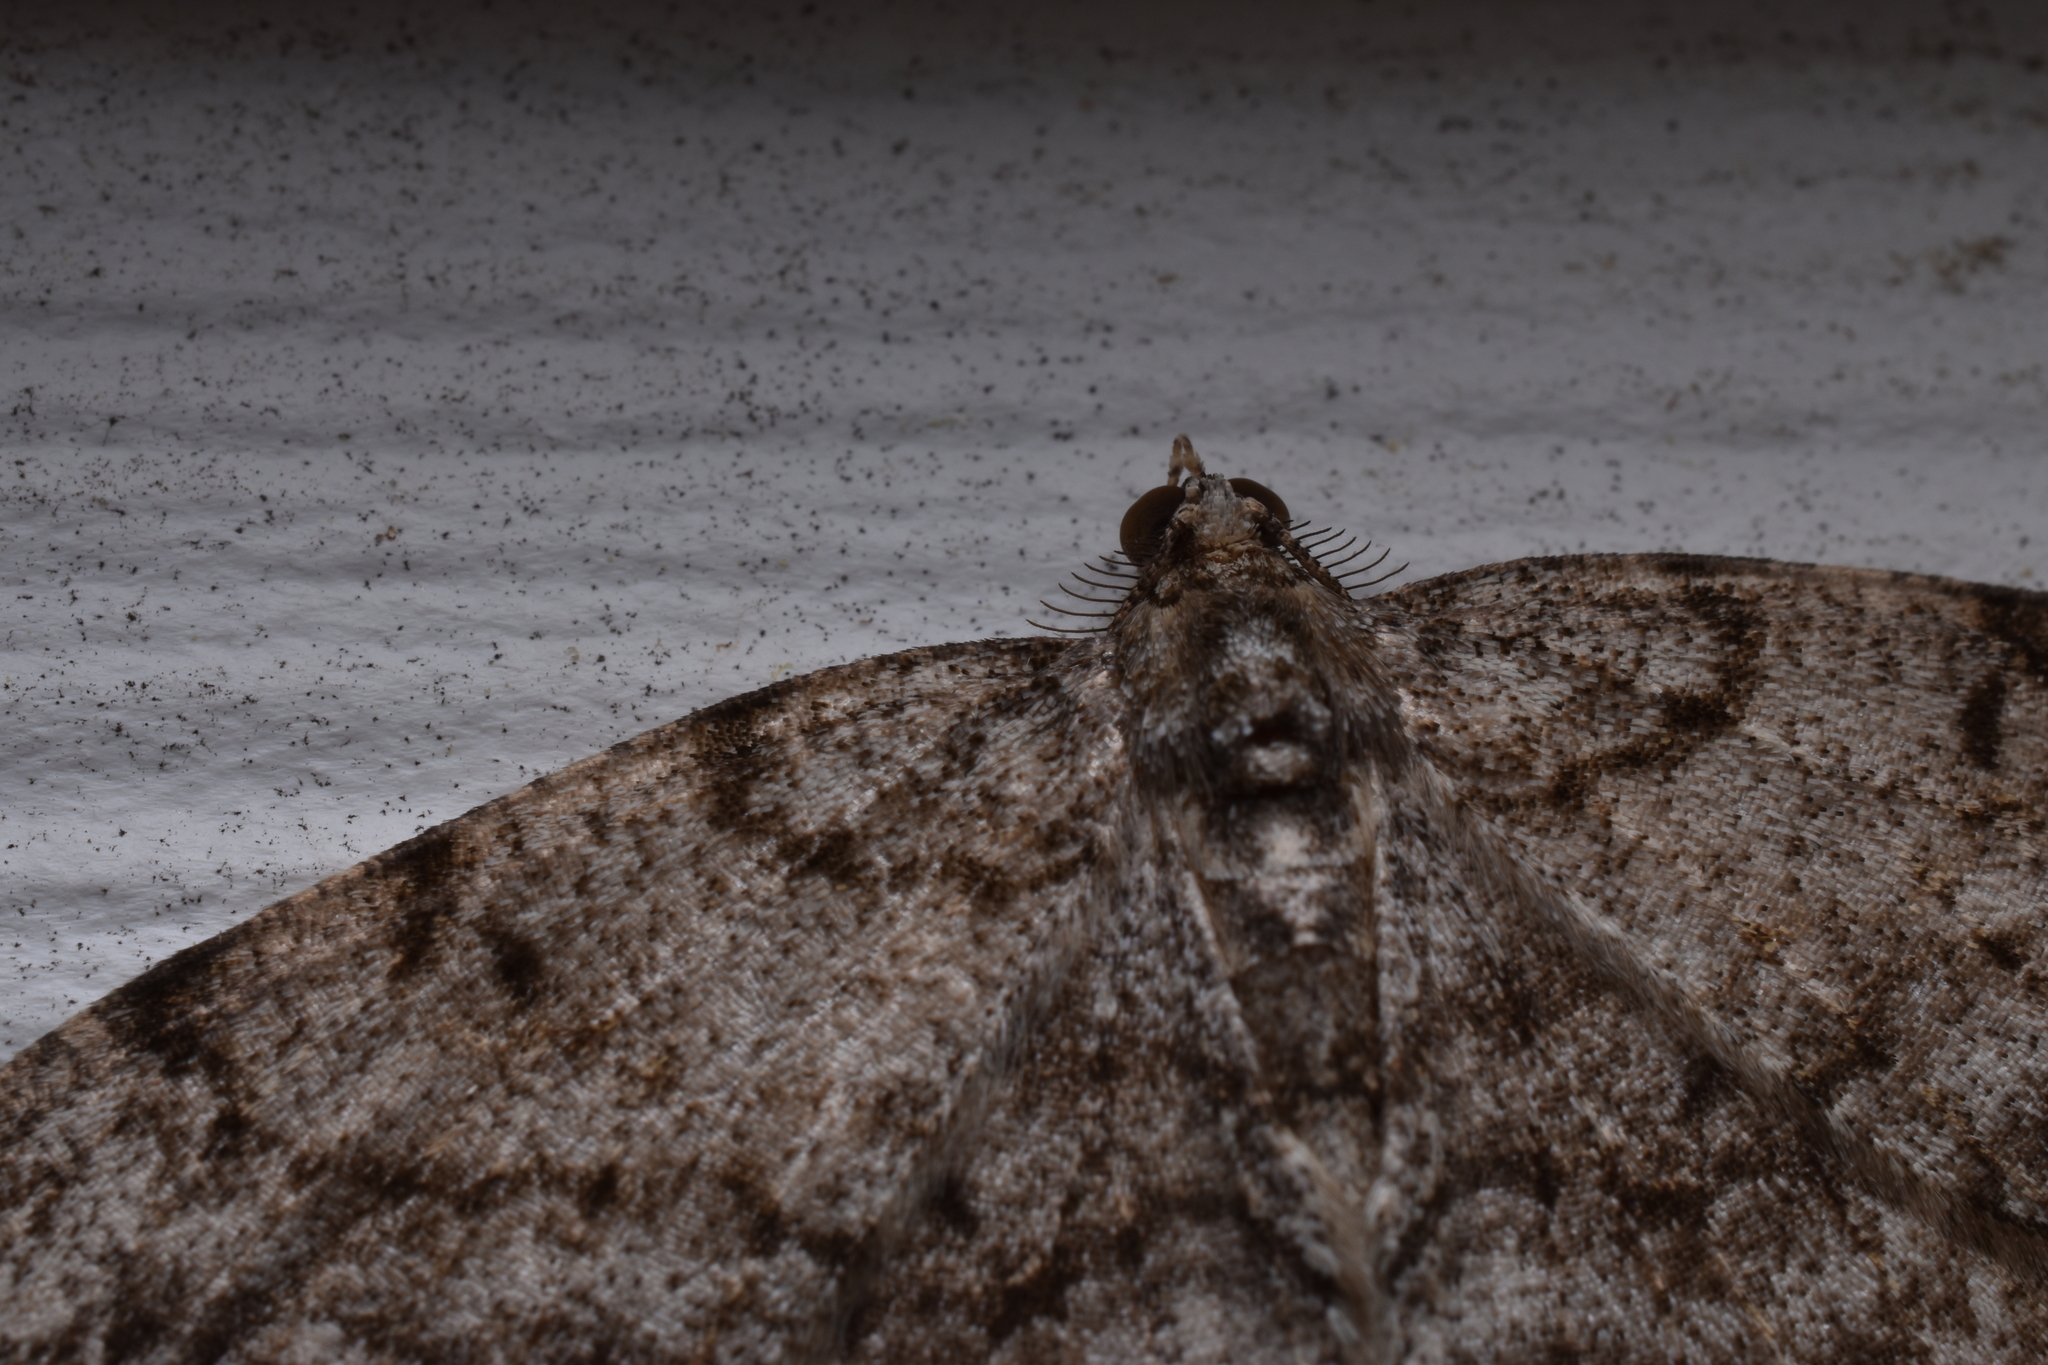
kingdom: Animalia
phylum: Arthropoda
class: Insecta
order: Lepidoptera
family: Geometridae
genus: Protoboarmia
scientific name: Protoboarmia porcelaria
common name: Porcelain gray
